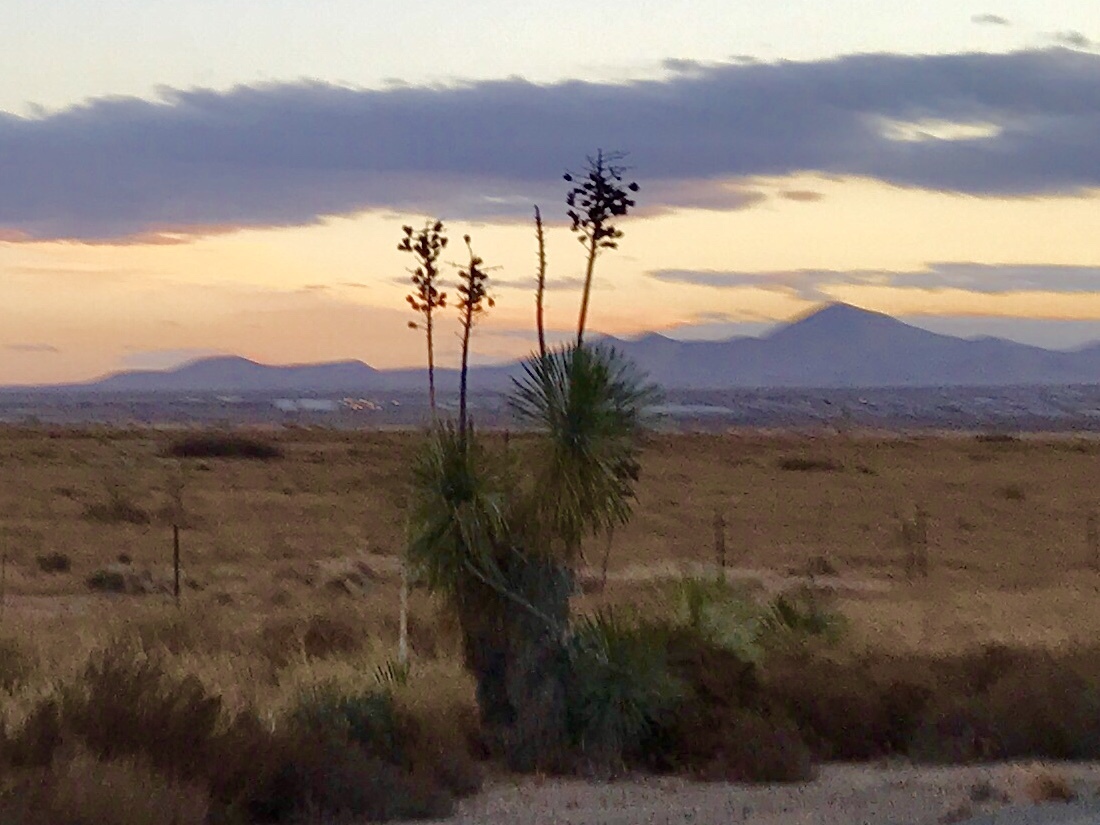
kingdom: Plantae
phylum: Tracheophyta
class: Liliopsida
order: Asparagales
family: Asparagaceae
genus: Yucca
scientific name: Yucca elata
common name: Palmella
